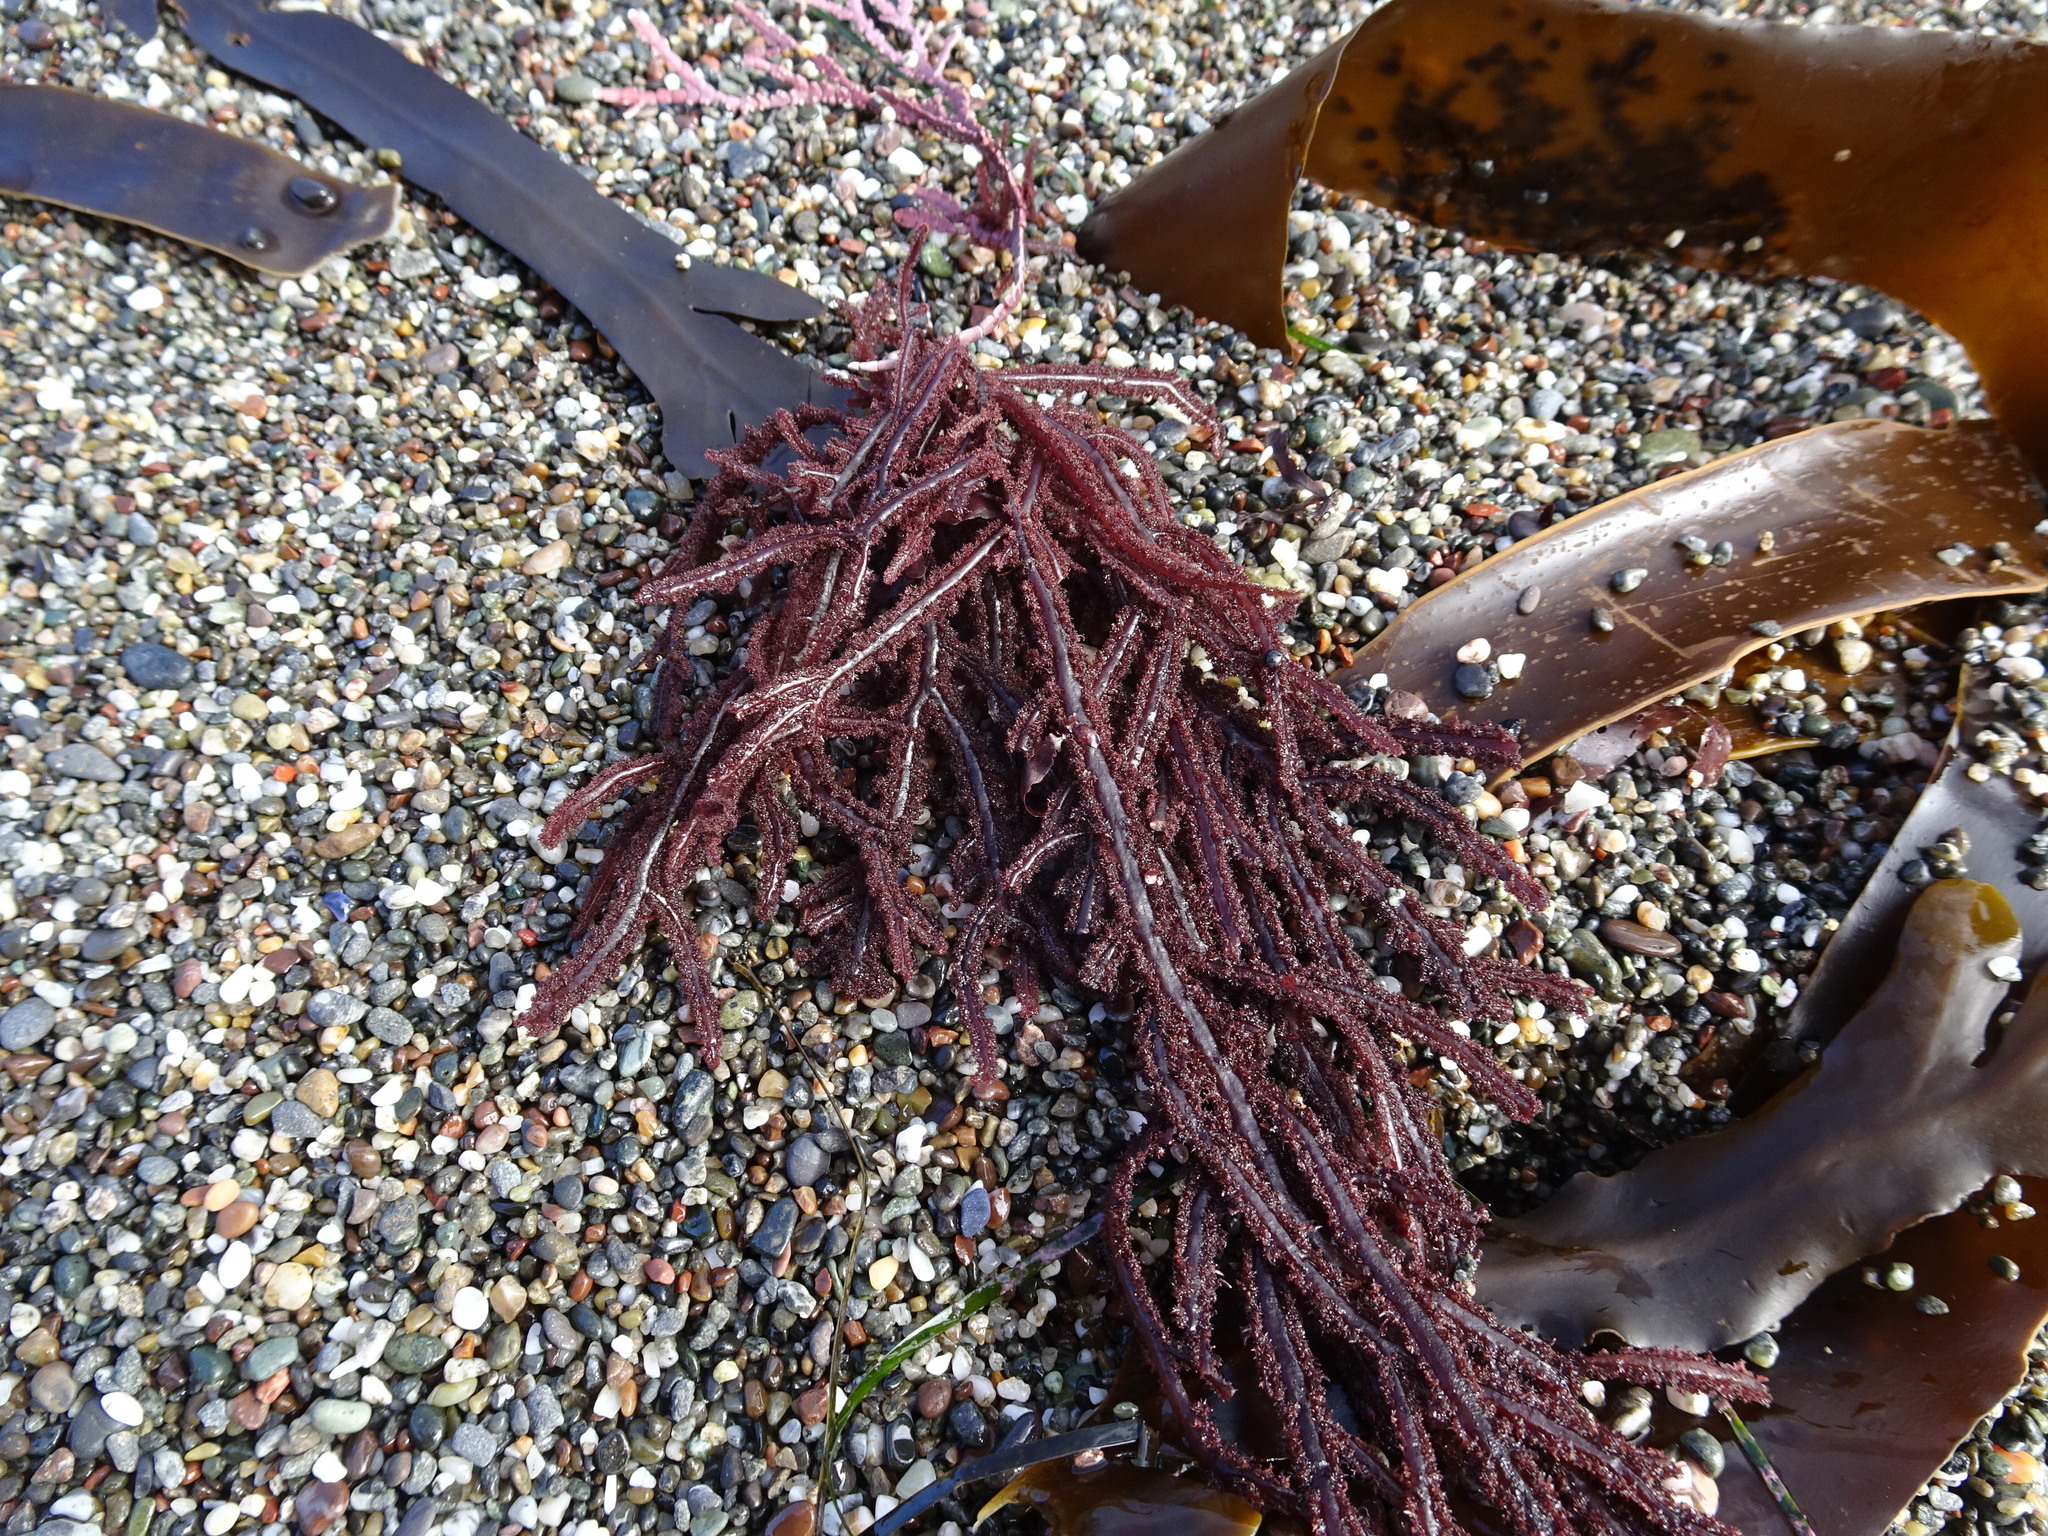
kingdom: Plantae
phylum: Rhodophyta
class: Florideophyceae
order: Ceramiales
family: Wrangeliaceae
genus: Neoptilota
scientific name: Neoptilota densa
